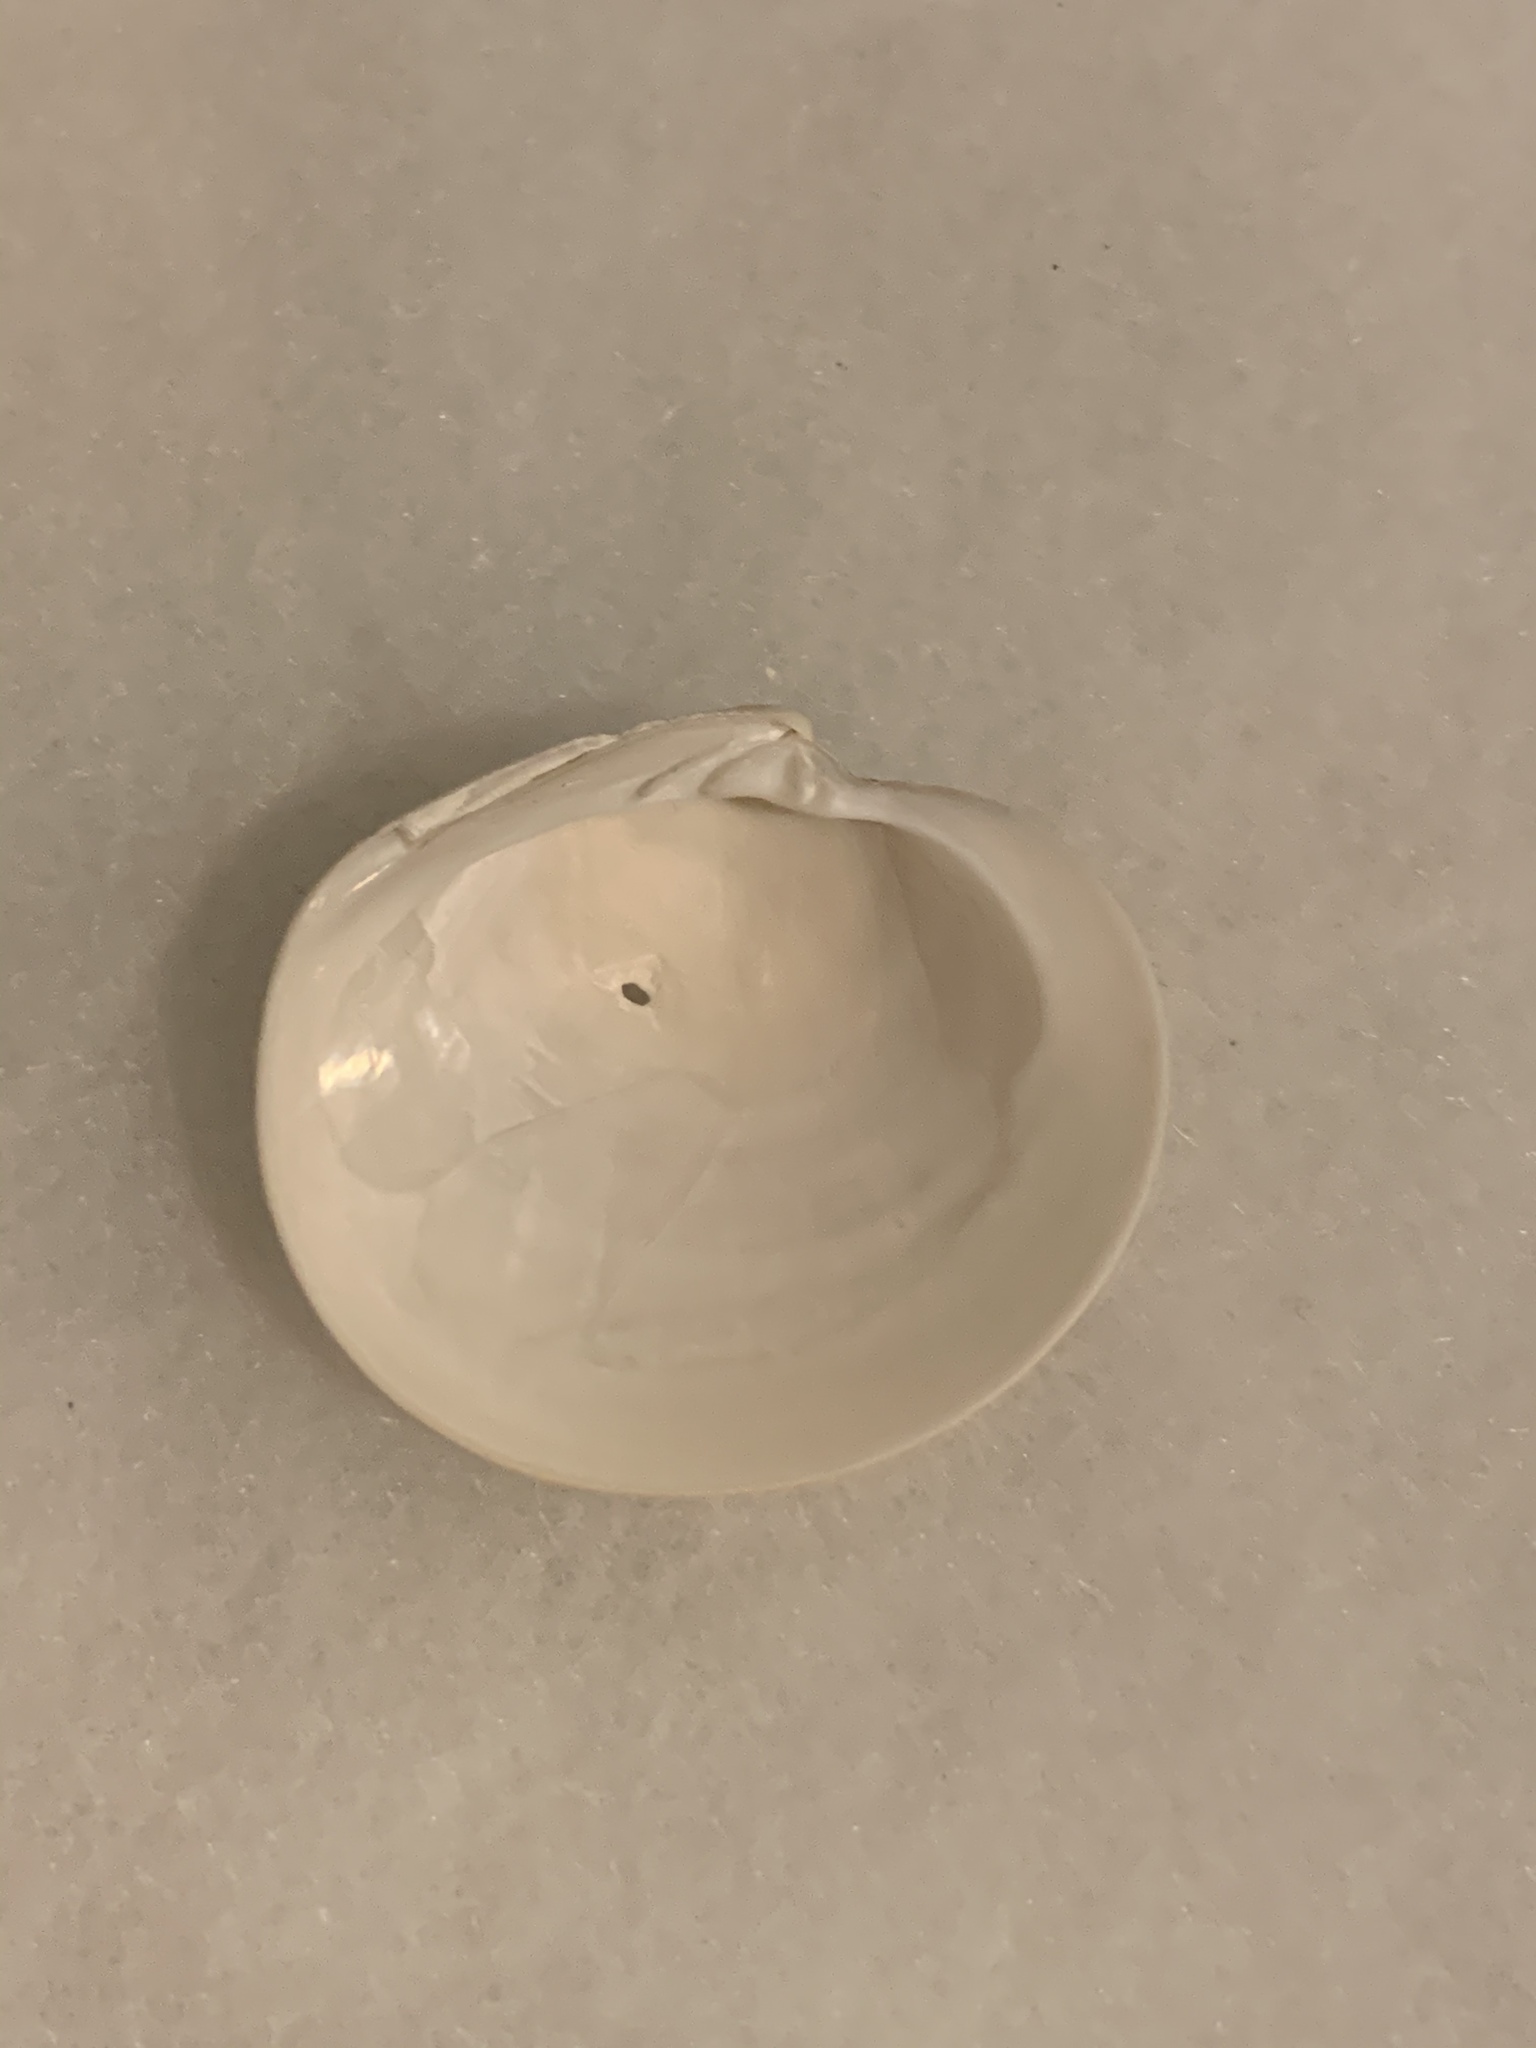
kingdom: Animalia
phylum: Mollusca
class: Bivalvia
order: Venerida
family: Veneridae
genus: Dosinia
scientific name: Dosinia concentrica
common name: Elegant dosinia
